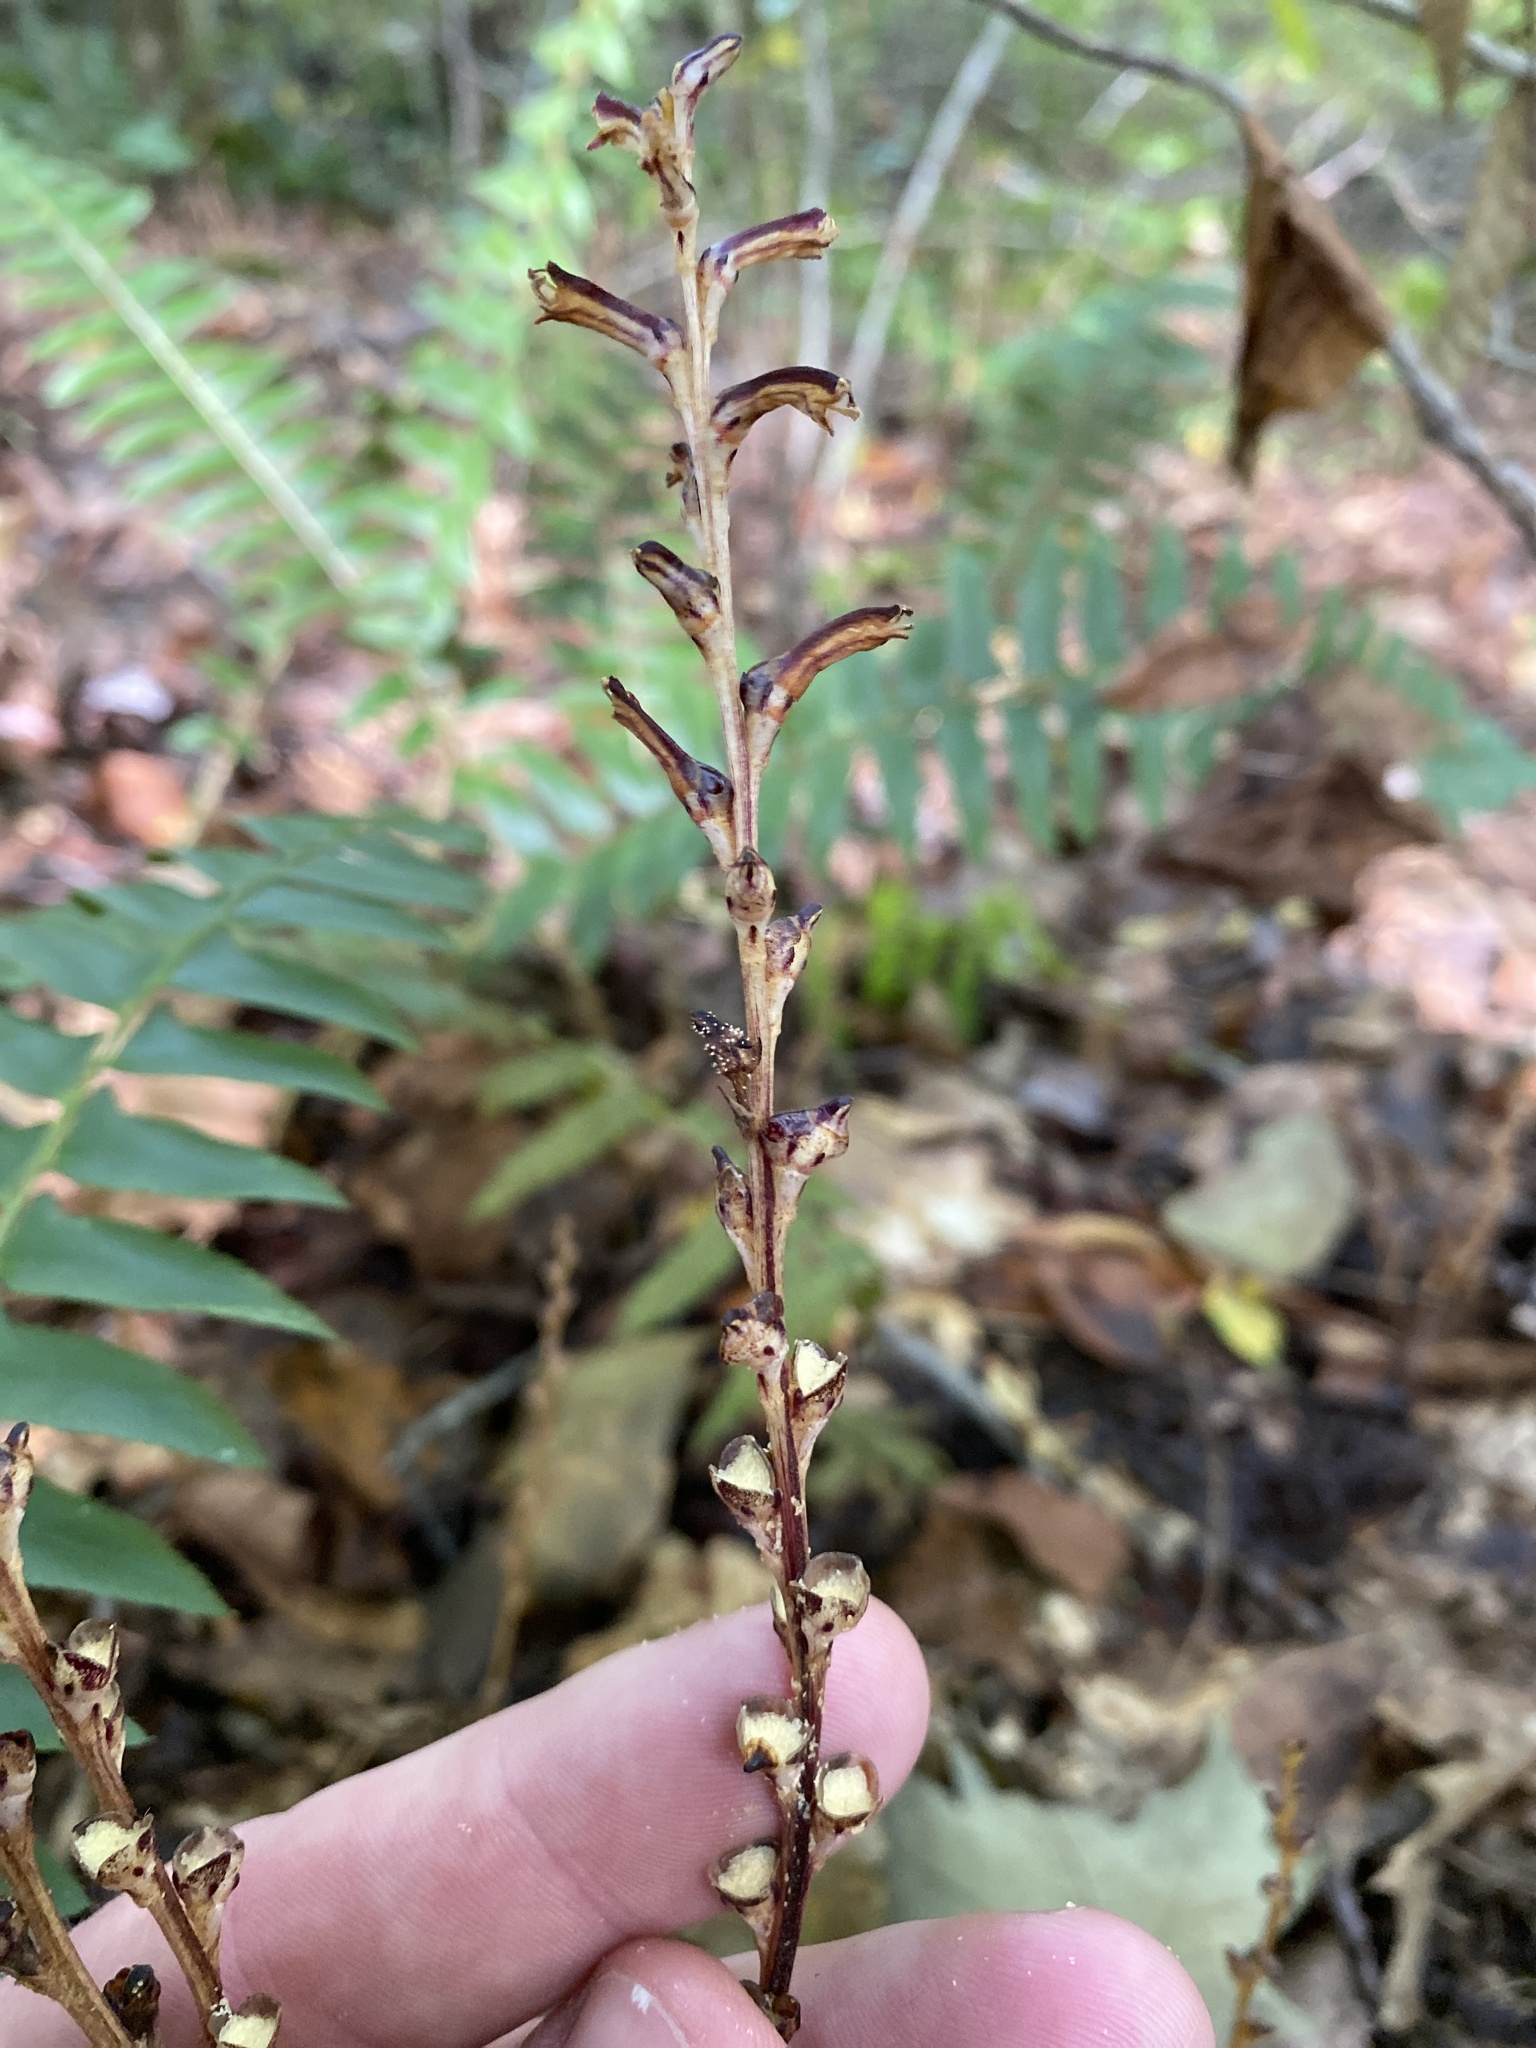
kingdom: Plantae
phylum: Tracheophyta
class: Magnoliopsida
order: Lamiales
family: Orobanchaceae
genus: Epifagus
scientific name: Epifagus virginiana
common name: Beechdrops
